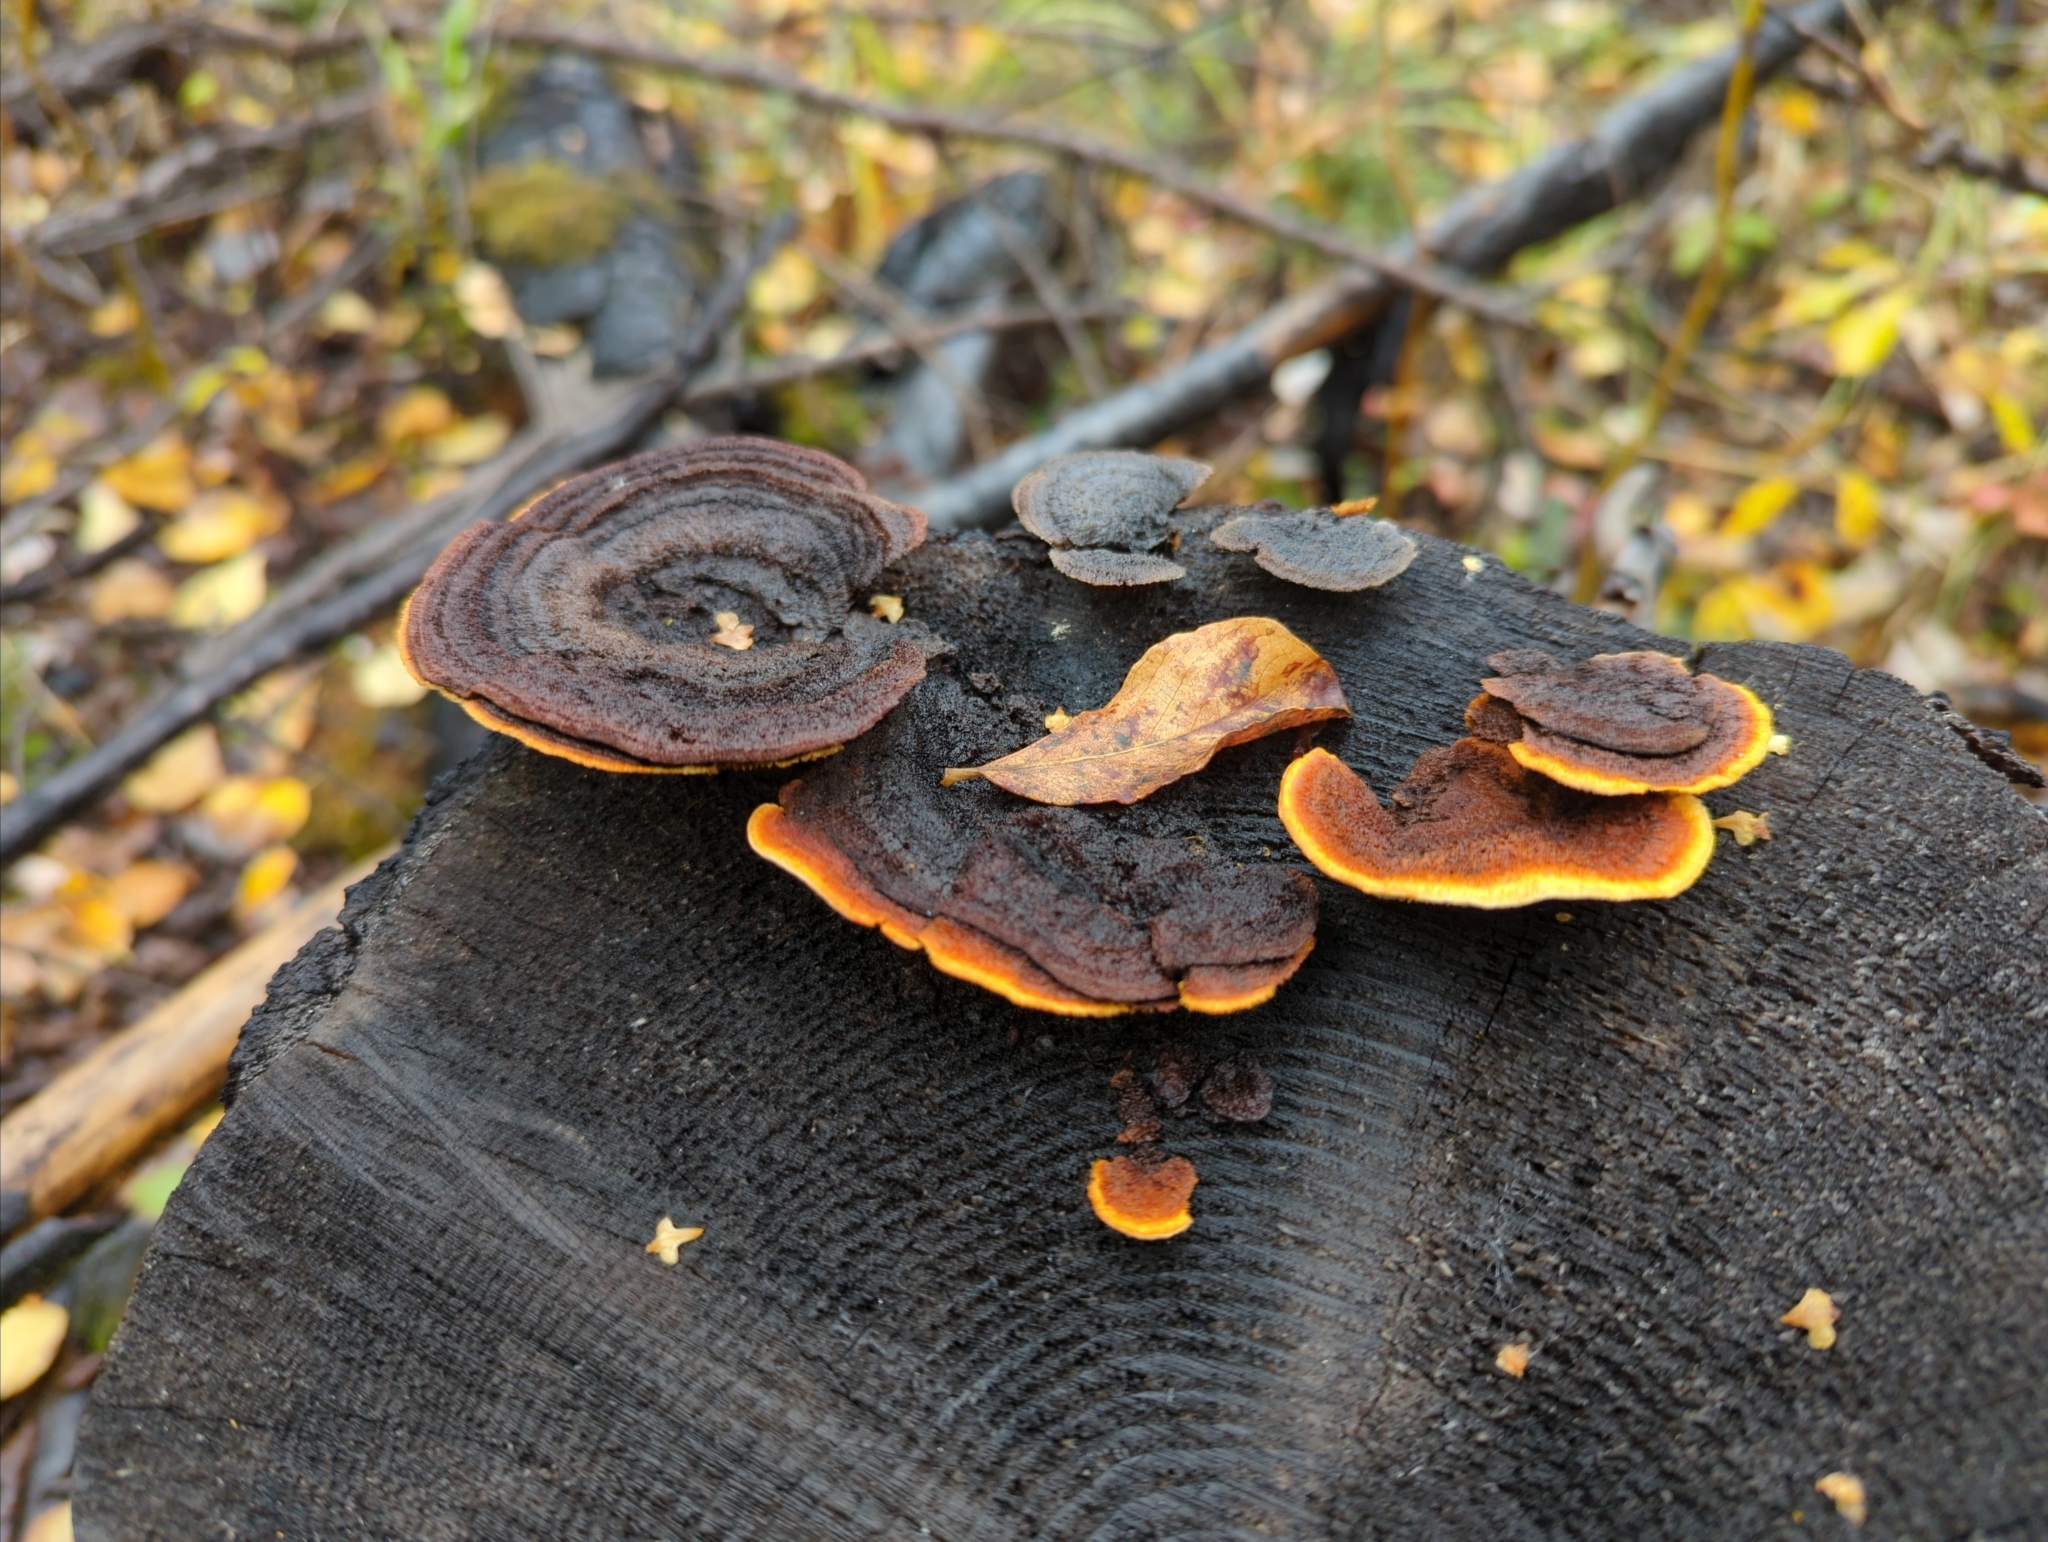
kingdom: Fungi
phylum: Basidiomycota
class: Agaricomycetes
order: Gloeophyllales
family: Gloeophyllaceae
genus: Gloeophyllum
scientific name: Gloeophyllum sepiarium
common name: Conifer mazegill
